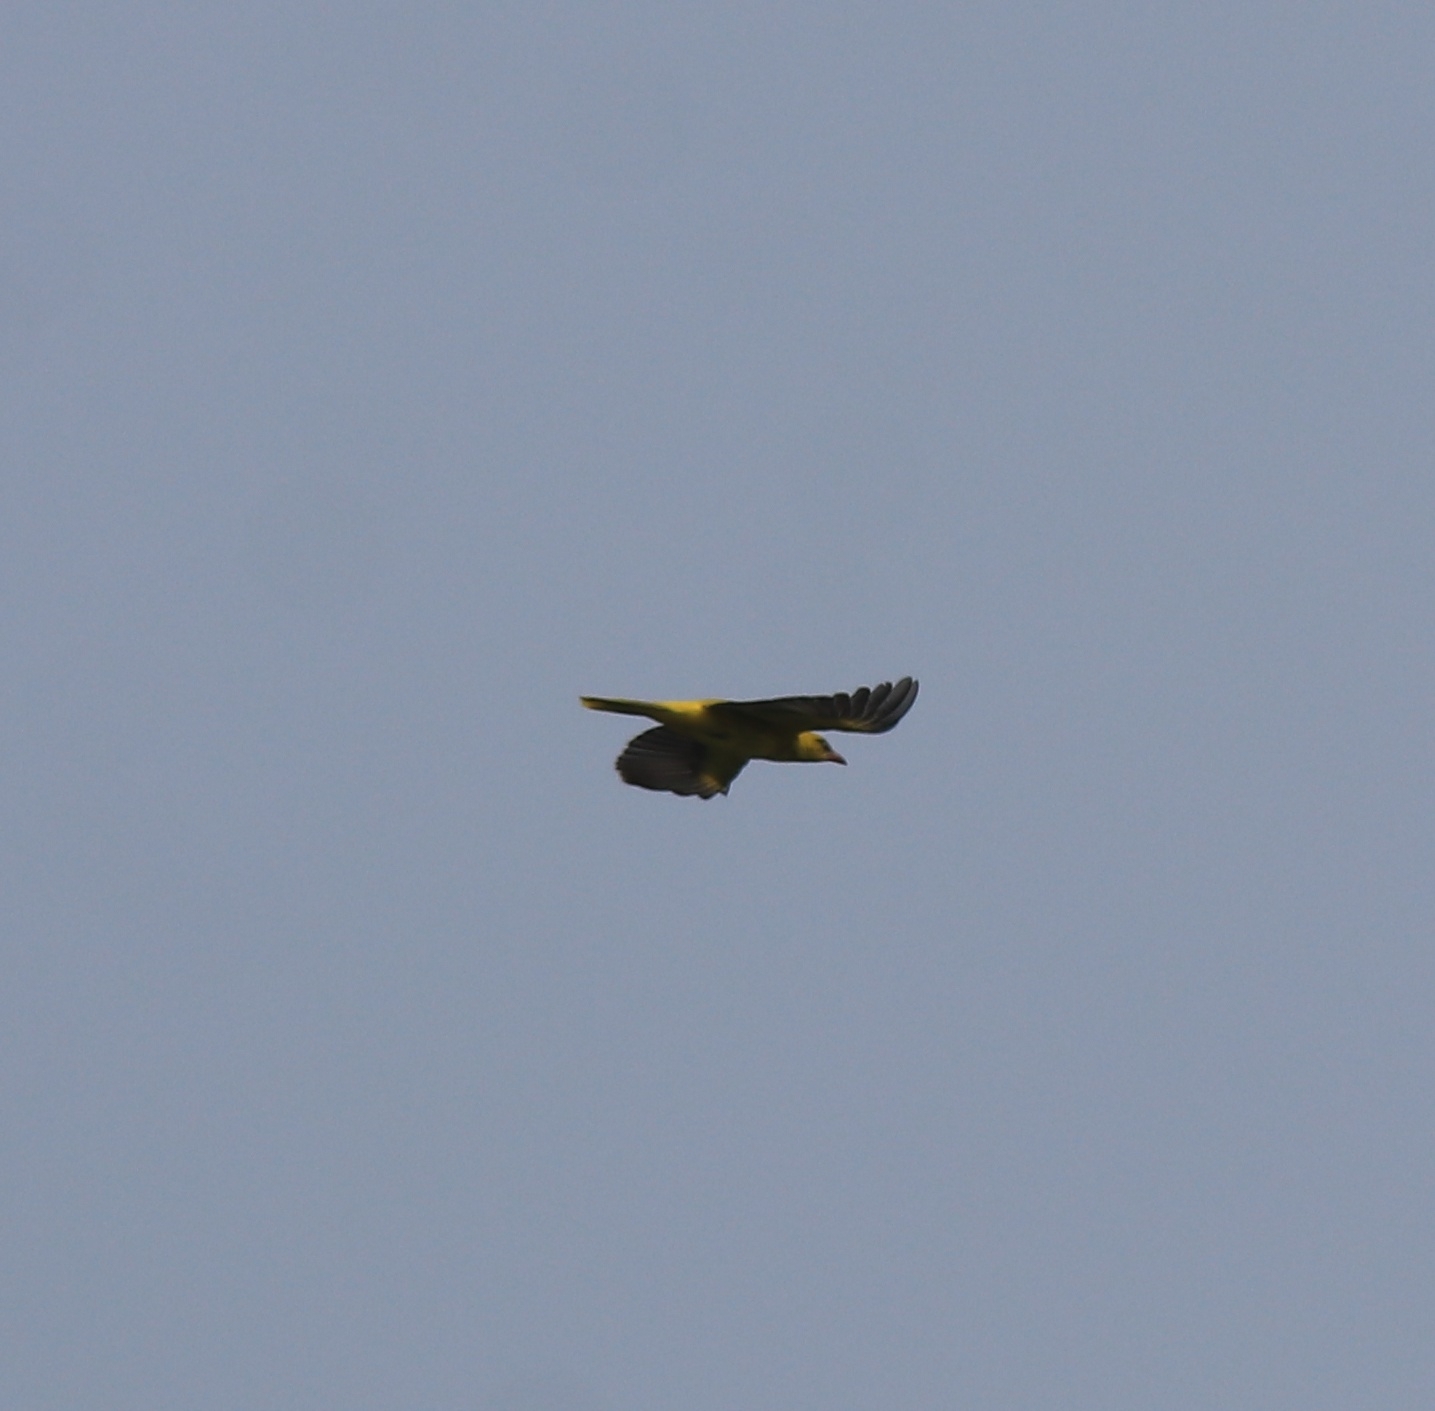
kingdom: Animalia
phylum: Chordata
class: Aves
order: Passeriformes
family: Oriolidae
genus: Oriolus
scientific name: Oriolus kundoo
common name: Indian golden oriole
